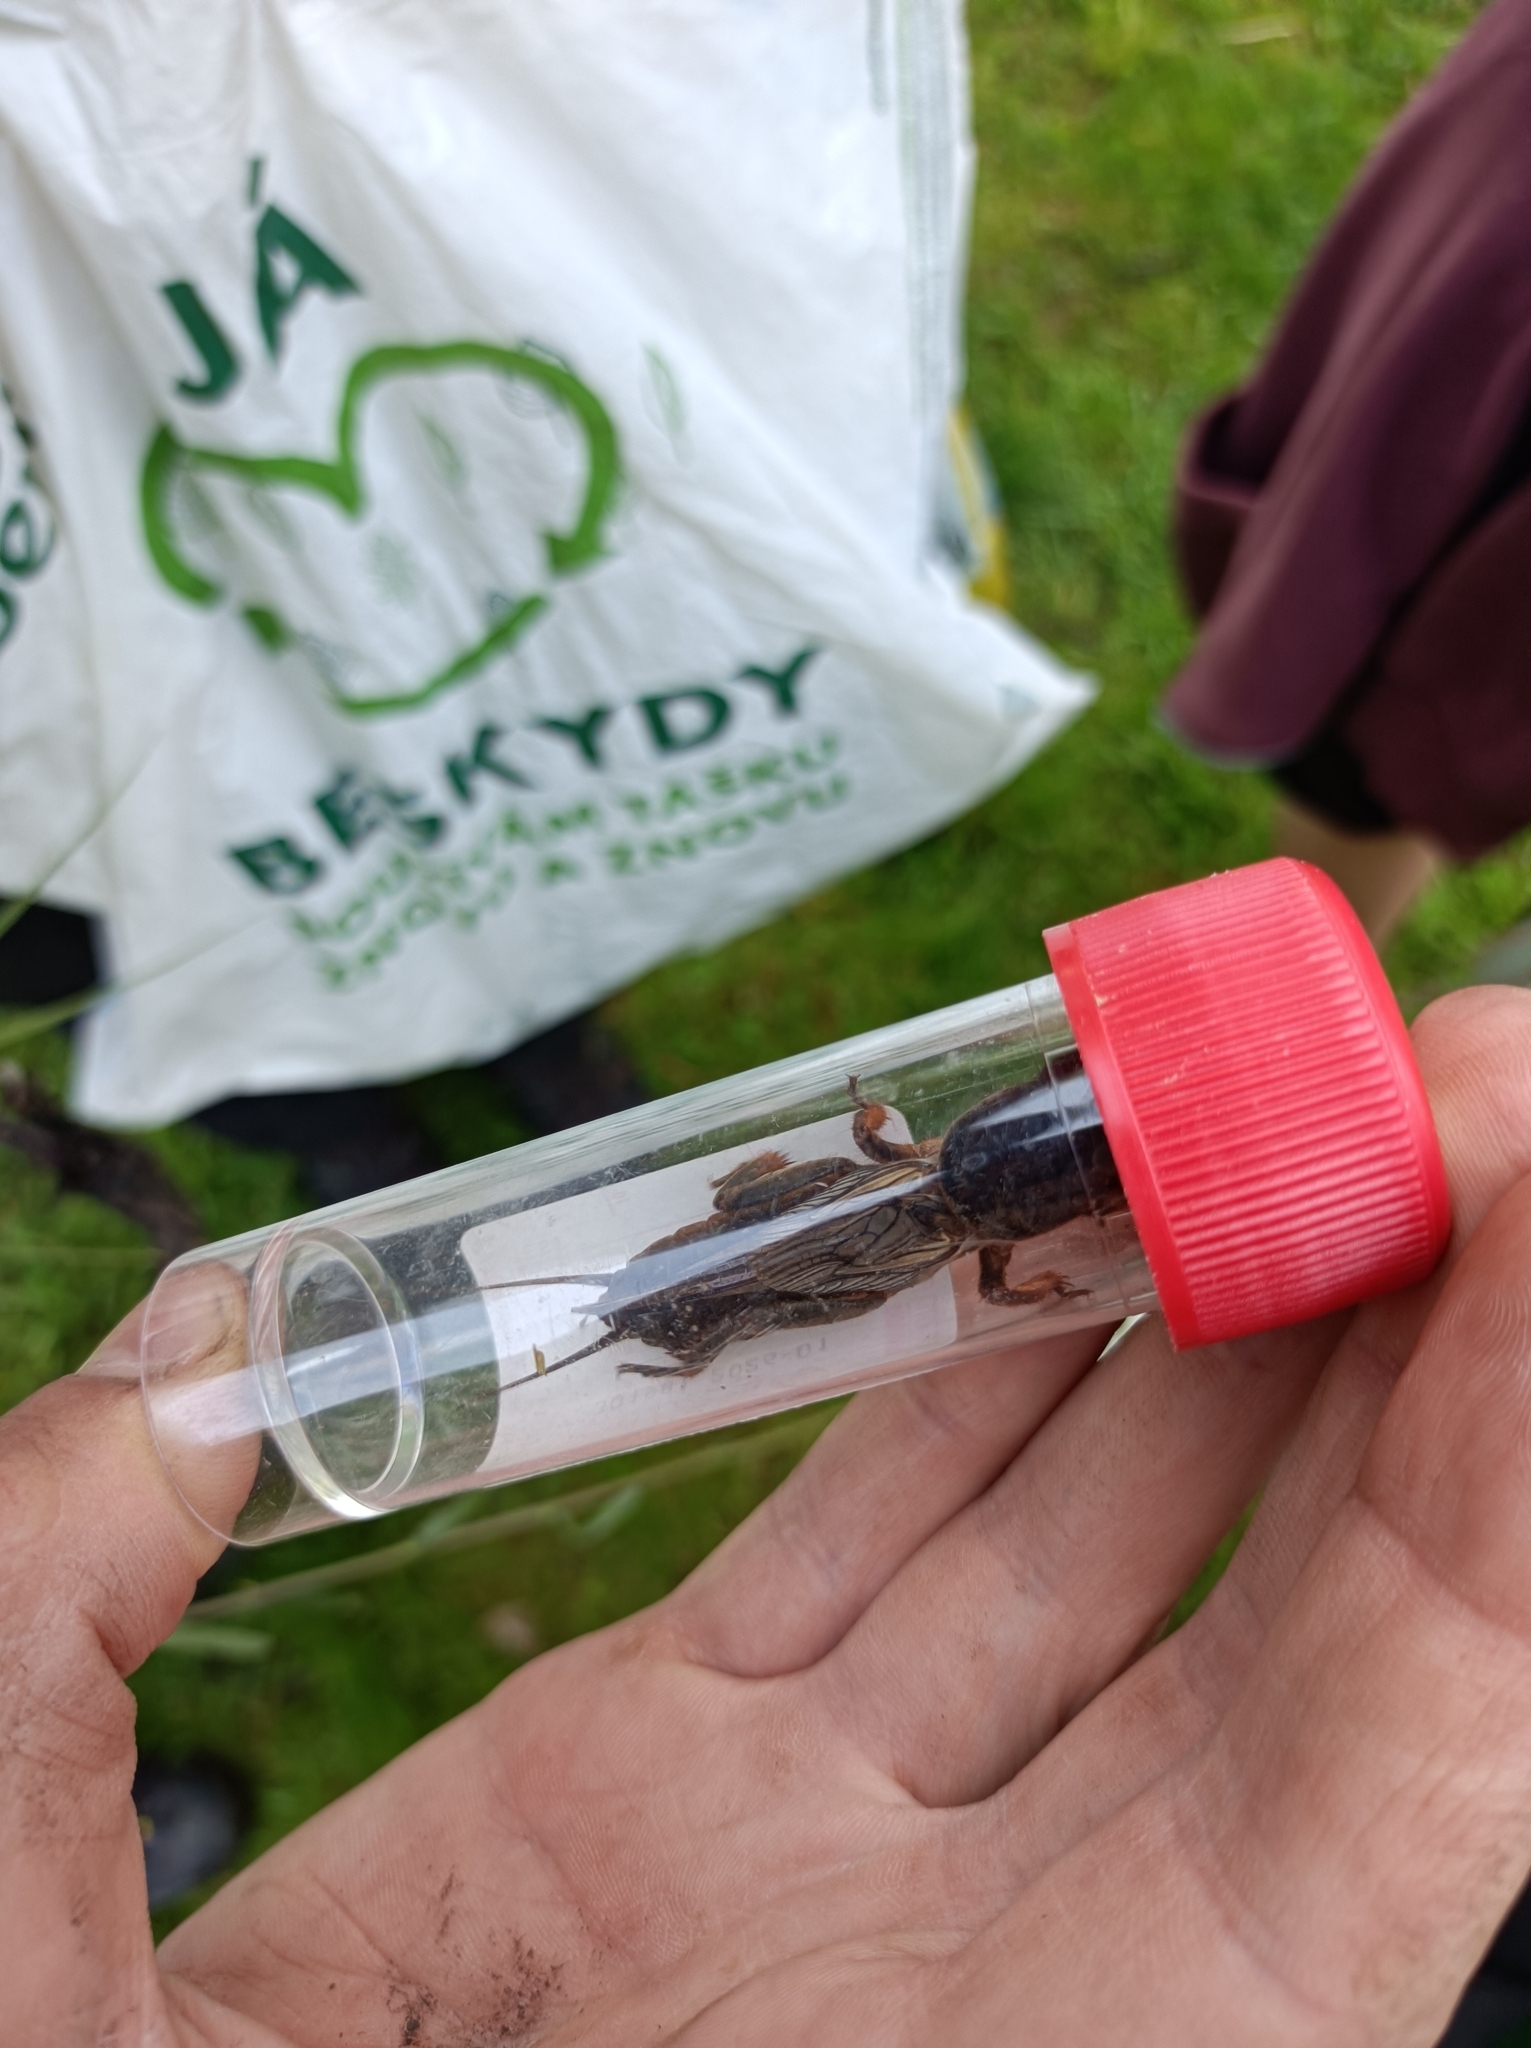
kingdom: Animalia
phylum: Arthropoda
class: Insecta
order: Orthoptera
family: Gryllotalpidae
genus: Gryllotalpa
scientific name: Gryllotalpa gryllotalpa
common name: European mole cricket
